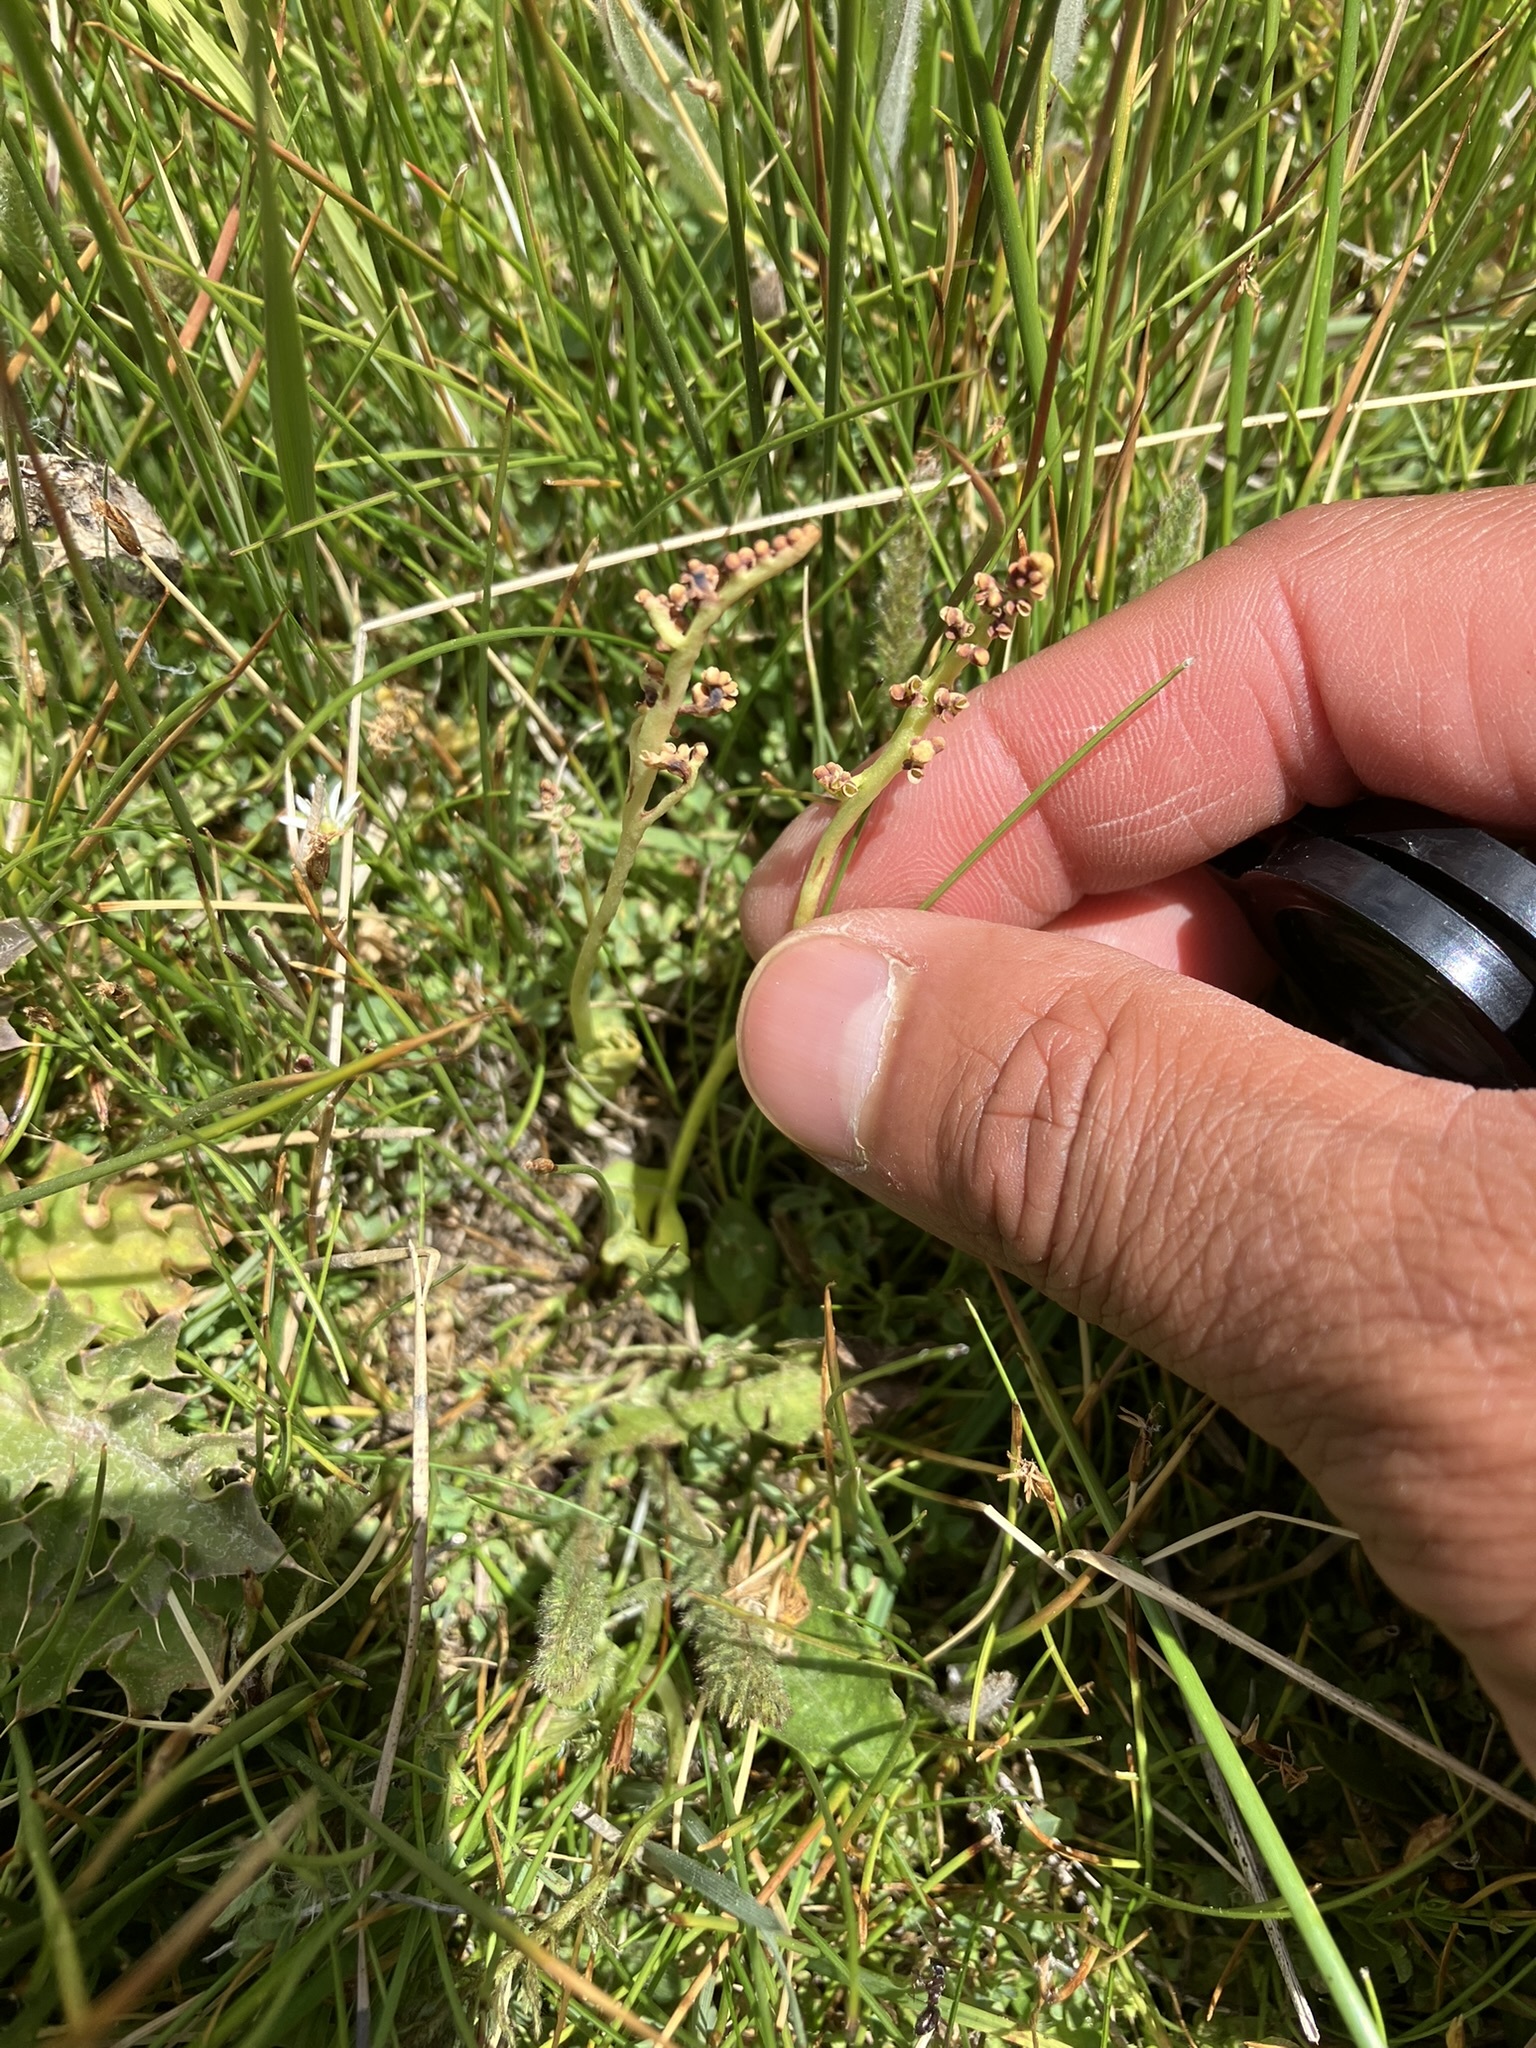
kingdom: Plantae
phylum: Tracheophyta
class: Polypodiopsida
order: Ophioglossales
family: Ophioglossaceae
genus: Botrychium
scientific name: Botrychium simplex
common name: Least moonwort
